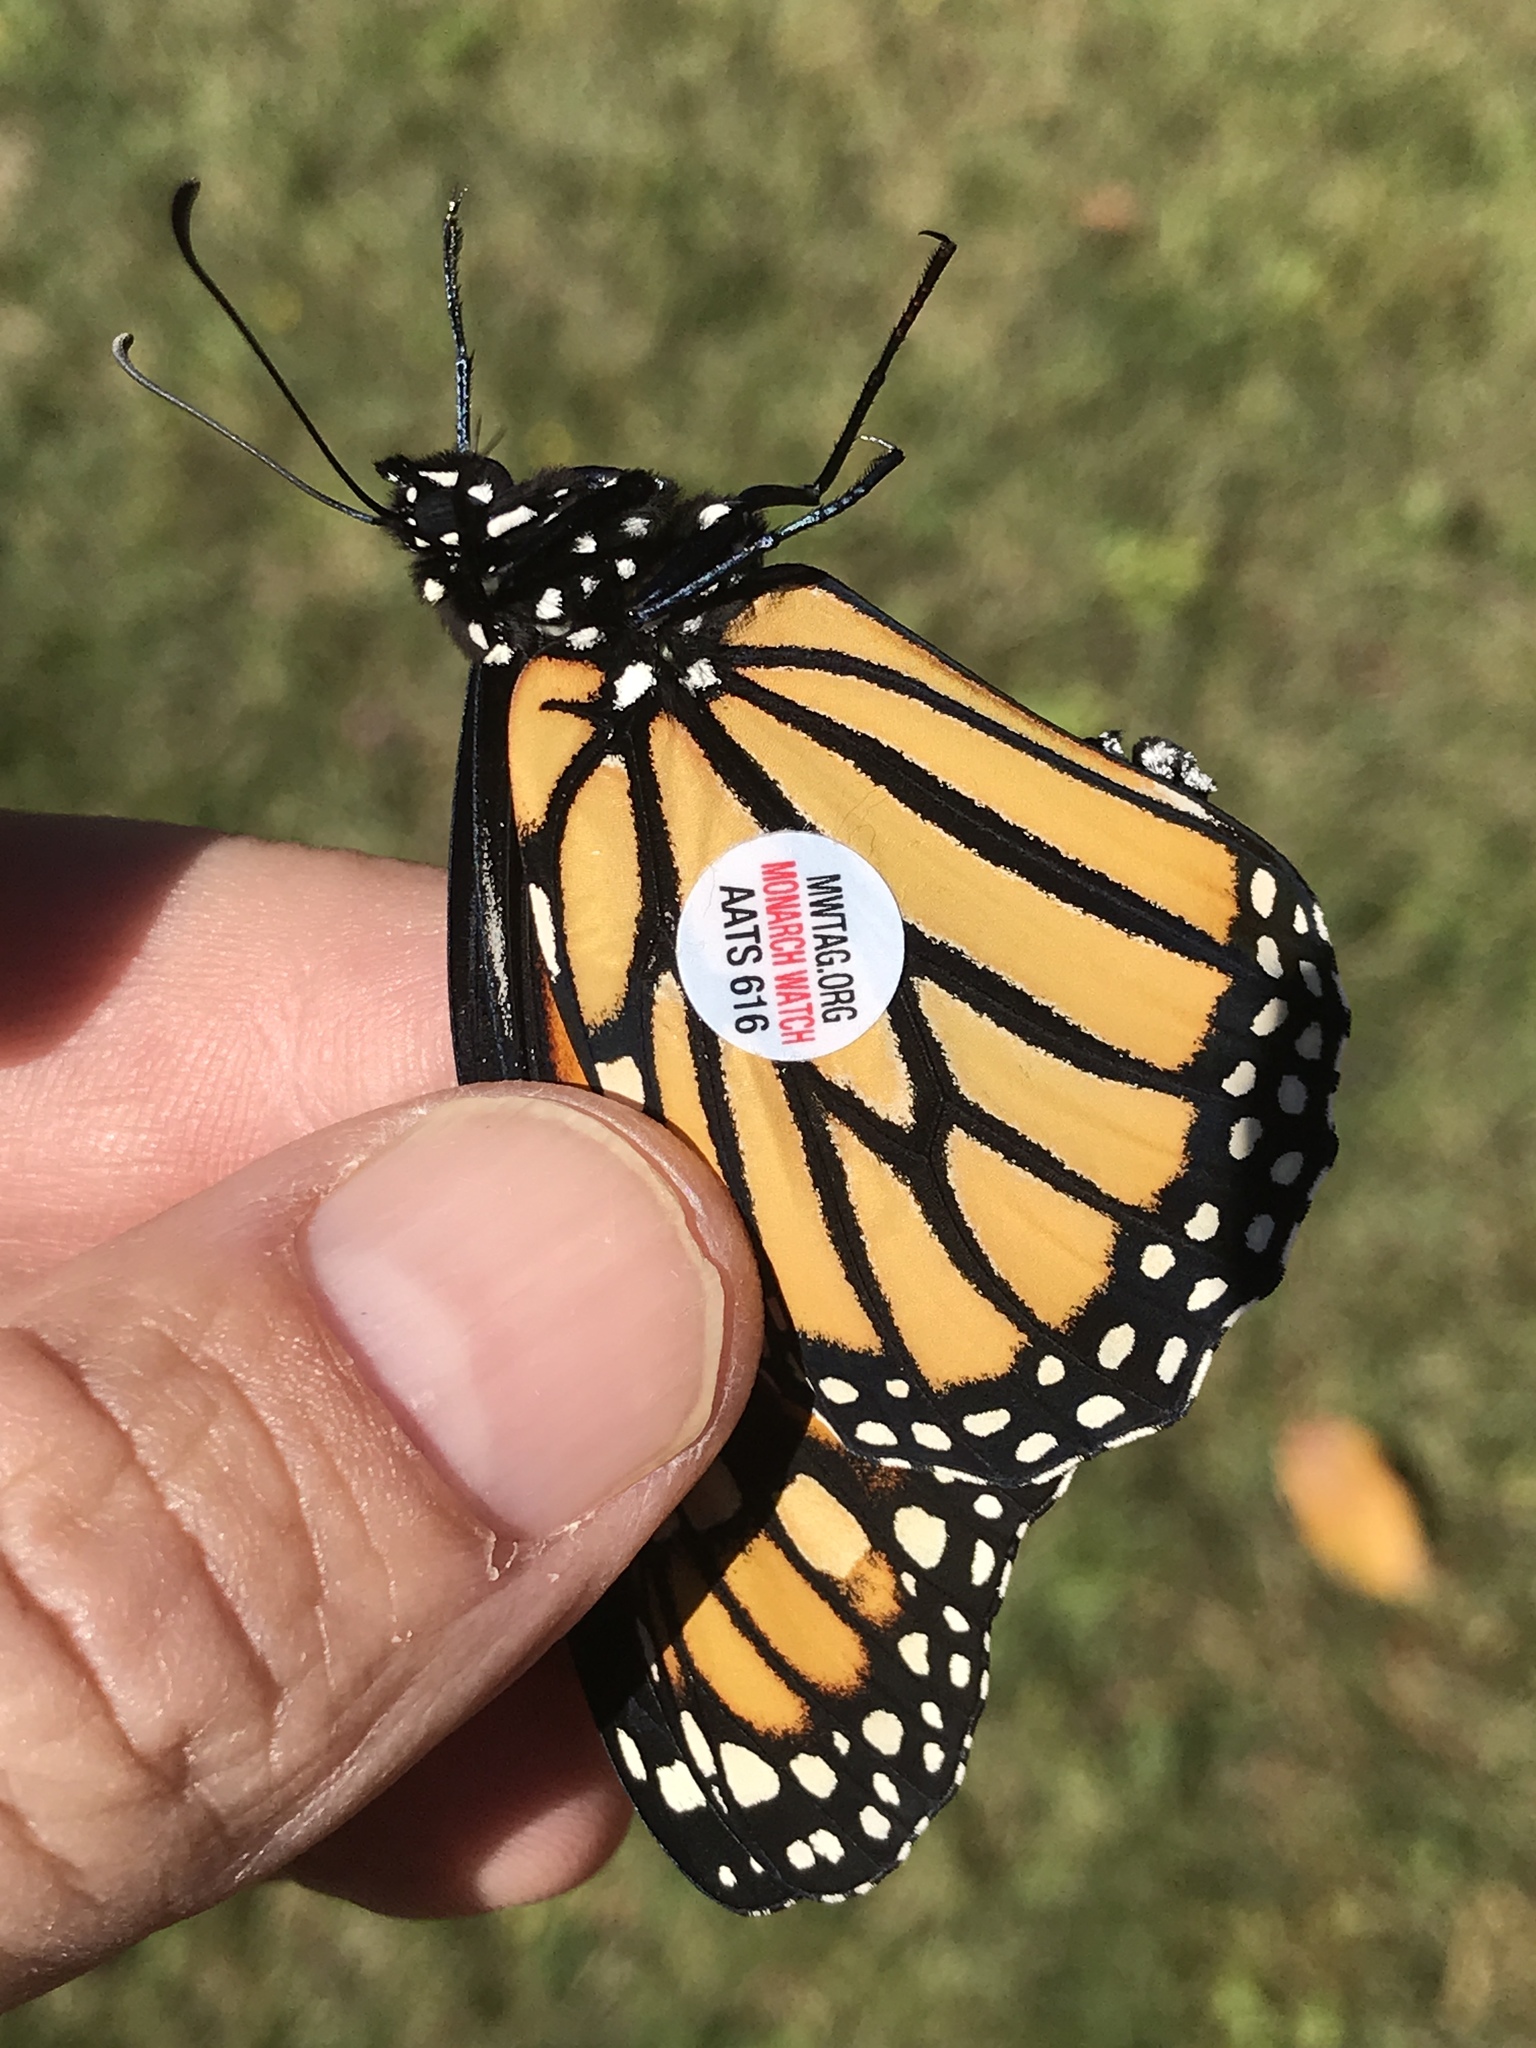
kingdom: Animalia
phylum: Arthropoda
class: Insecta
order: Lepidoptera
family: Nymphalidae
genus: Danaus
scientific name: Danaus plexippus
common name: Monarch
